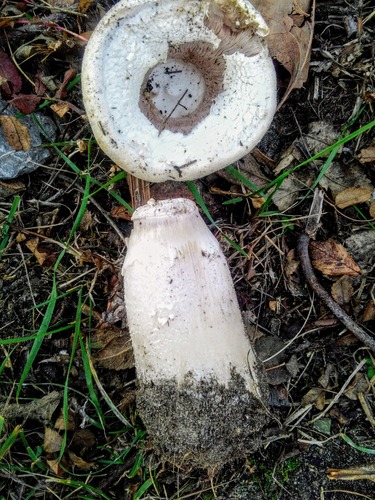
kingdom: Fungi
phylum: Basidiomycota
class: Agaricomycetes
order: Agaricales
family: Agaricaceae
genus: Agaricus
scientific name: Agaricus
